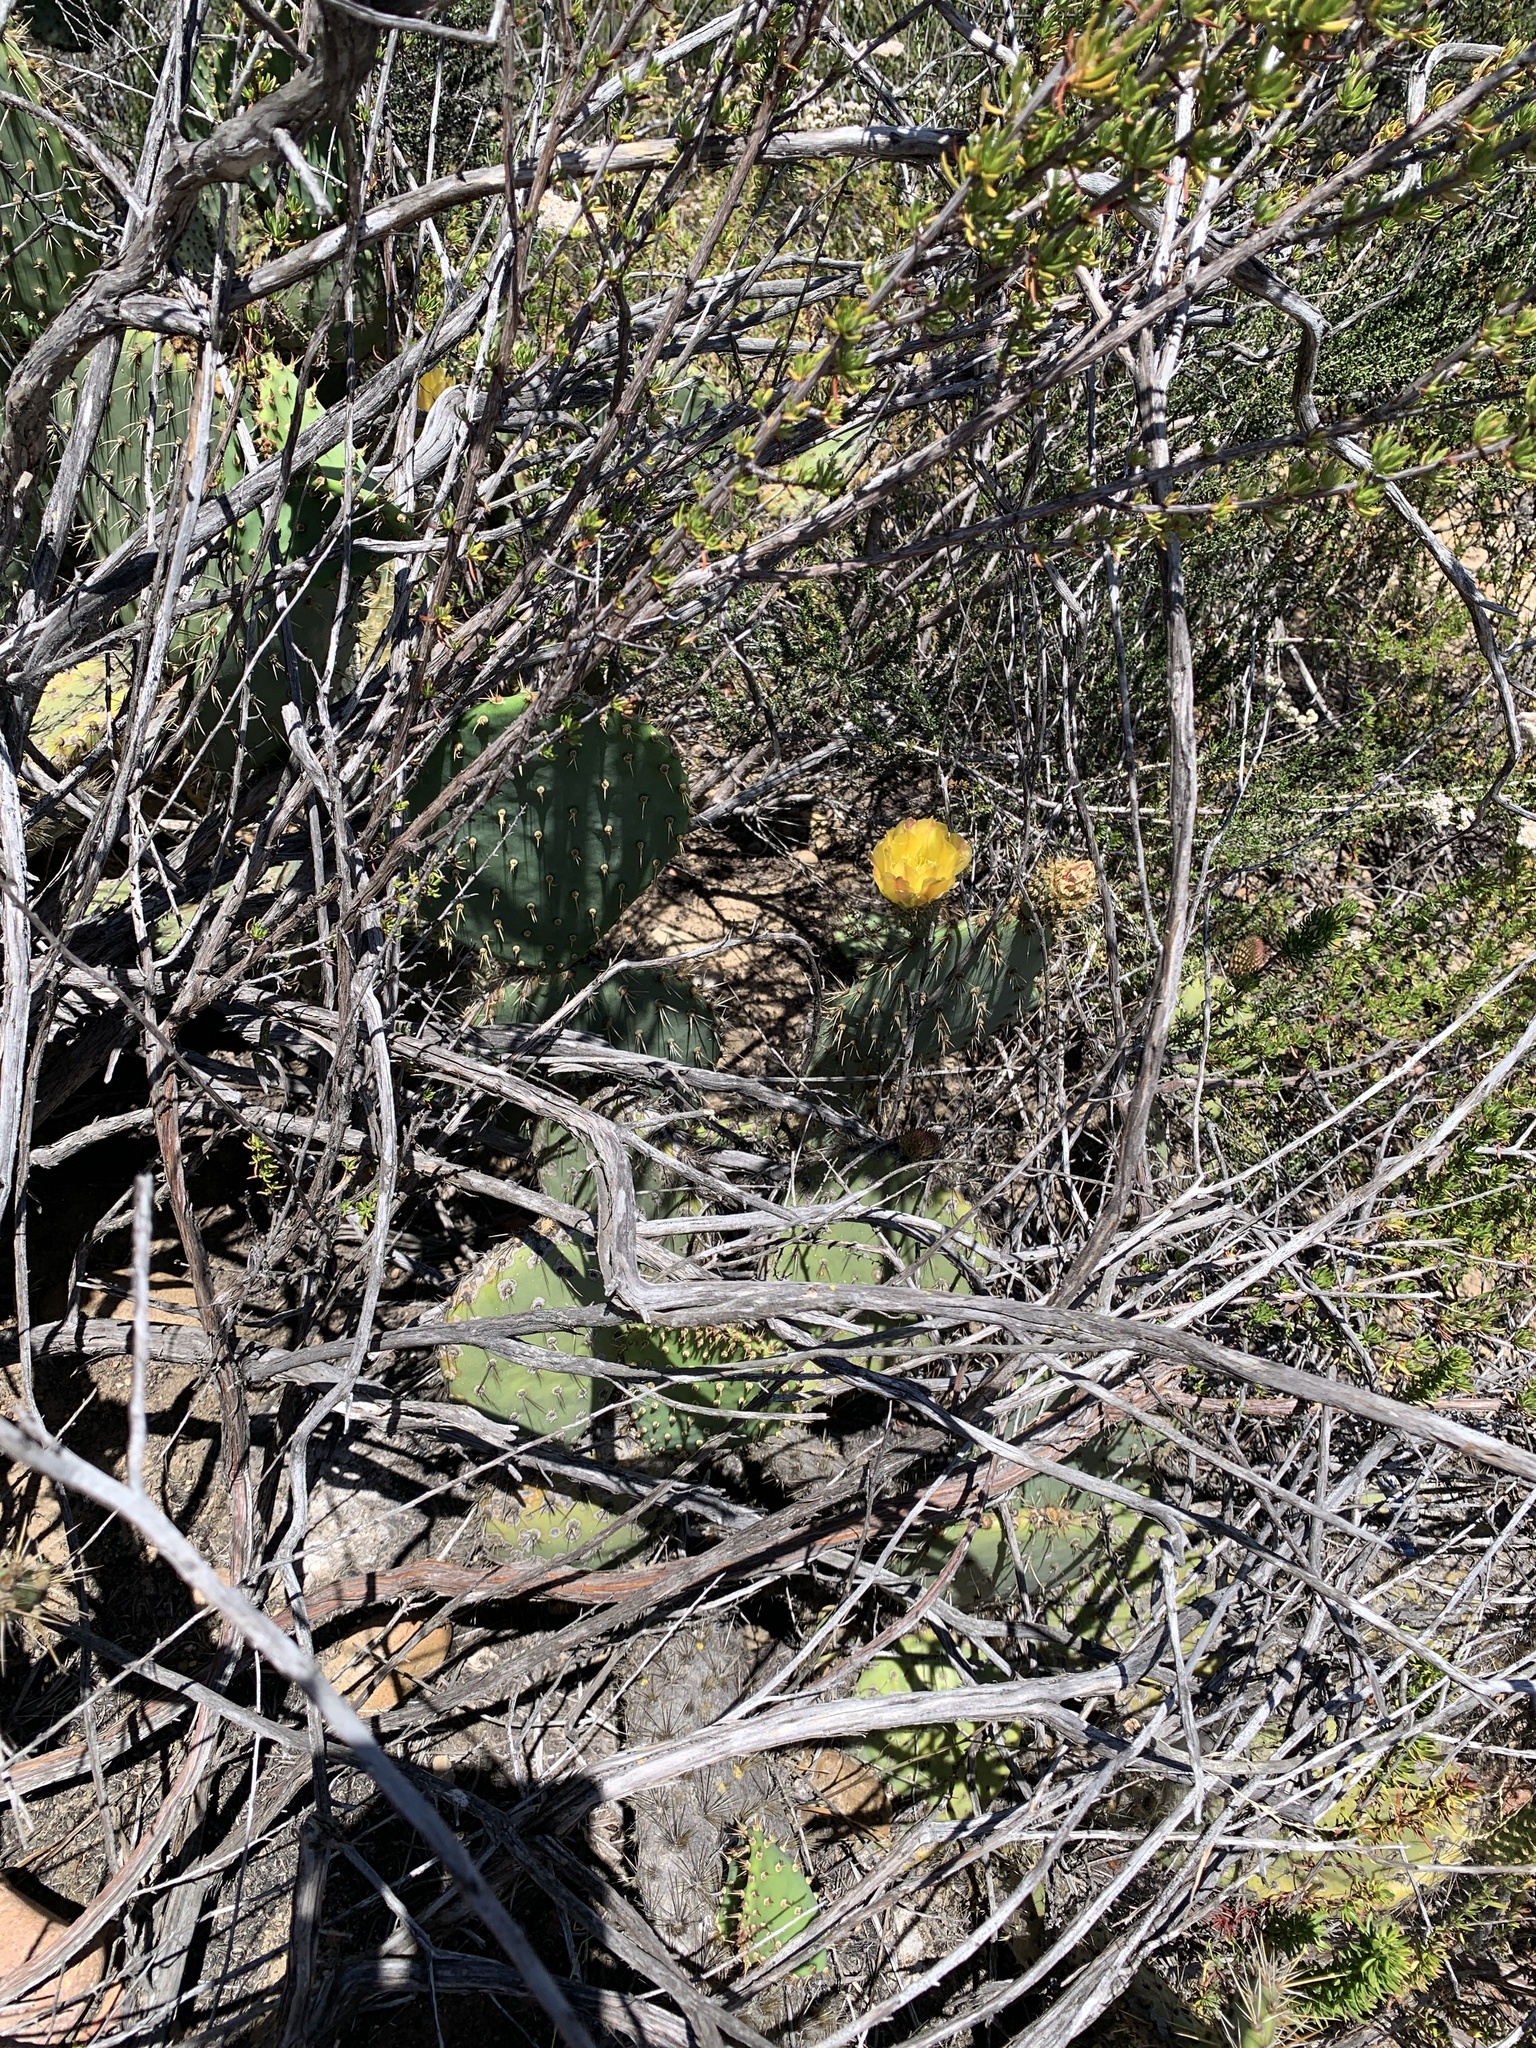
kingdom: Plantae
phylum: Tracheophyta
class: Magnoliopsida
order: Caryophyllales
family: Cactaceae
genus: Opuntia
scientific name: Opuntia oricola
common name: Chaparral prickly-pear
